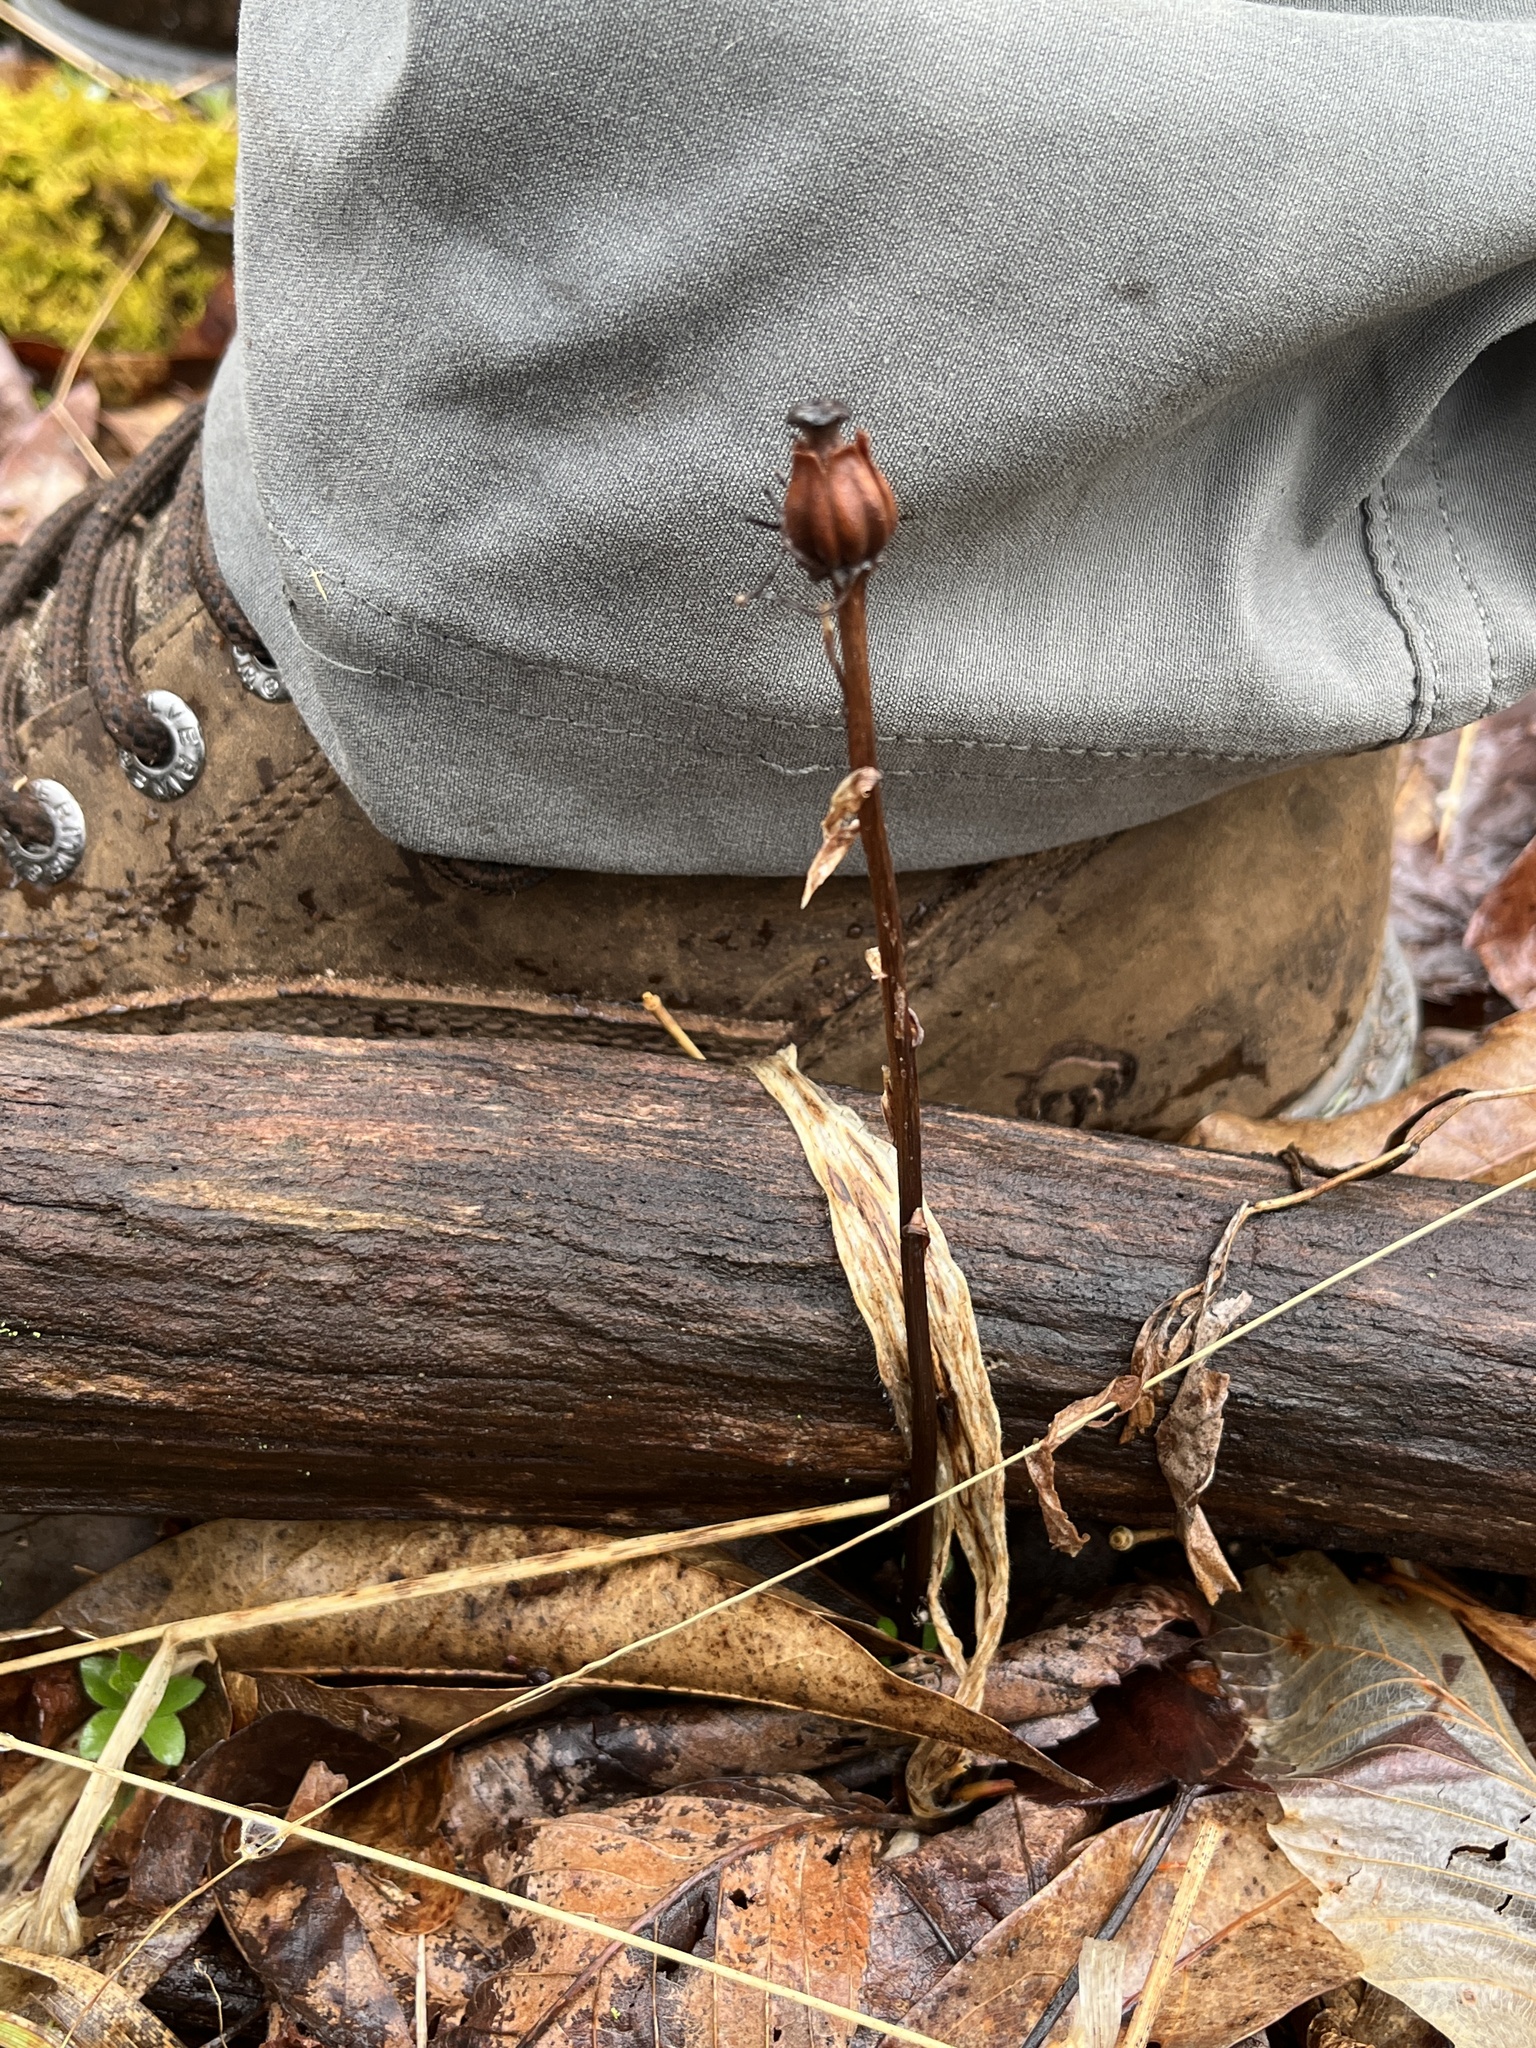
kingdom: Plantae
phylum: Tracheophyta
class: Magnoliopsida
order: Ericales
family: Ericaceae
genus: Monotropa
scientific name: Monotropa uniflora
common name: Convulsion root
